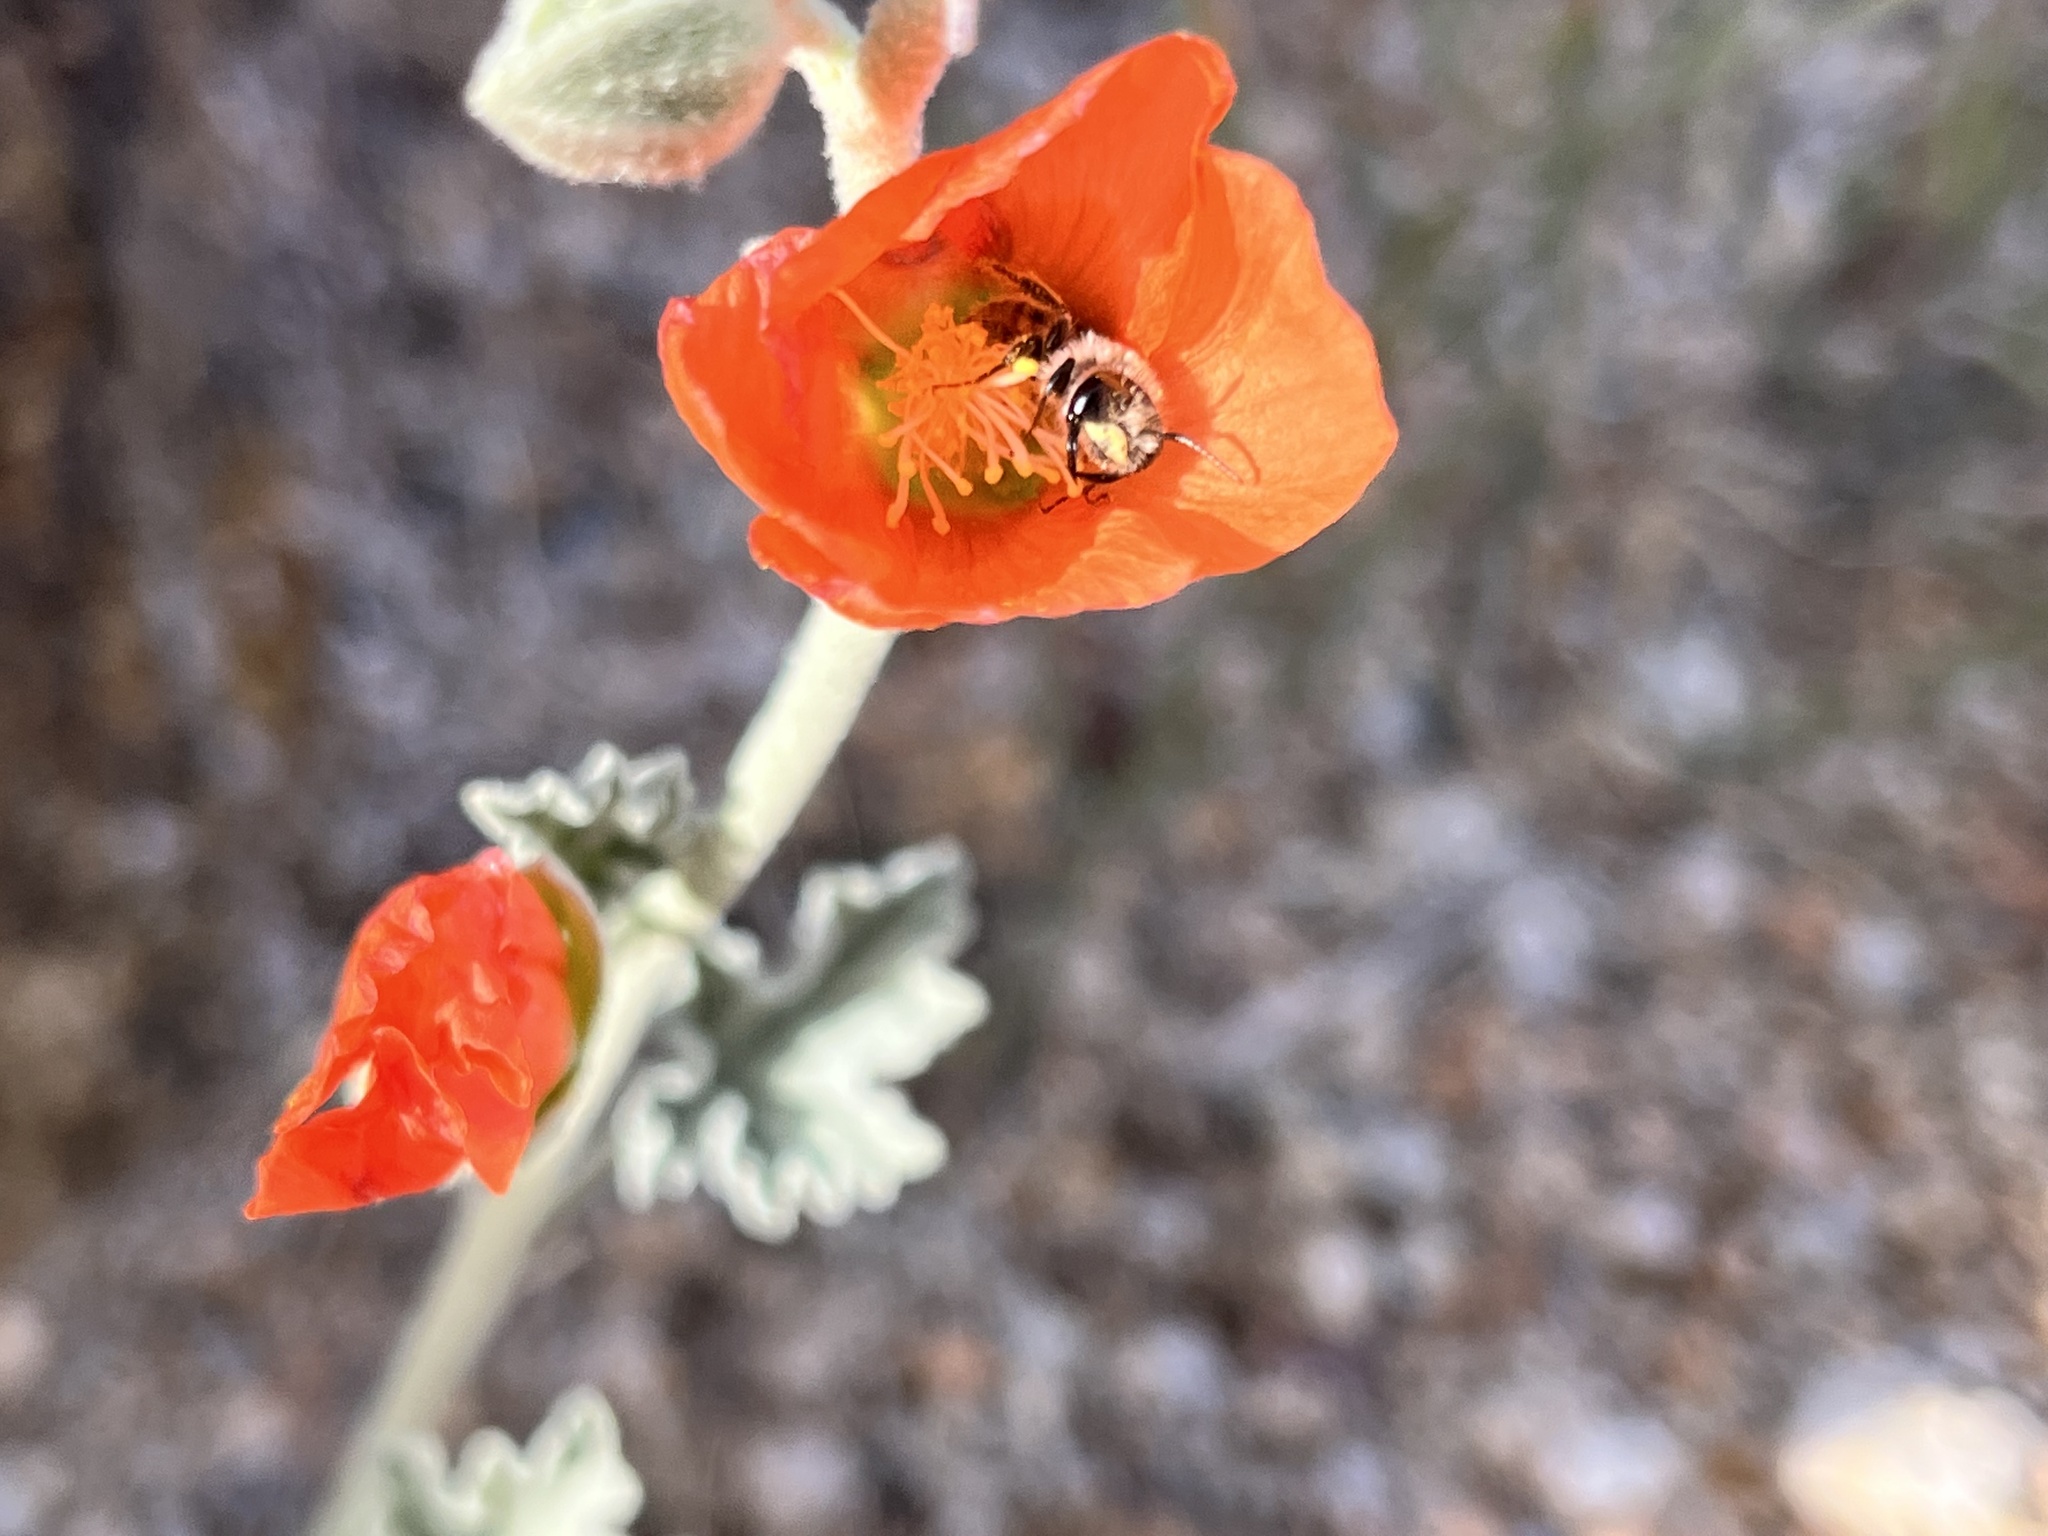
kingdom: Animalia
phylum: Arthropoda
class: Insecta
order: Hymenoptera
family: Andrenidae
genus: Andrena
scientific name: Andrena sphaeralceae
